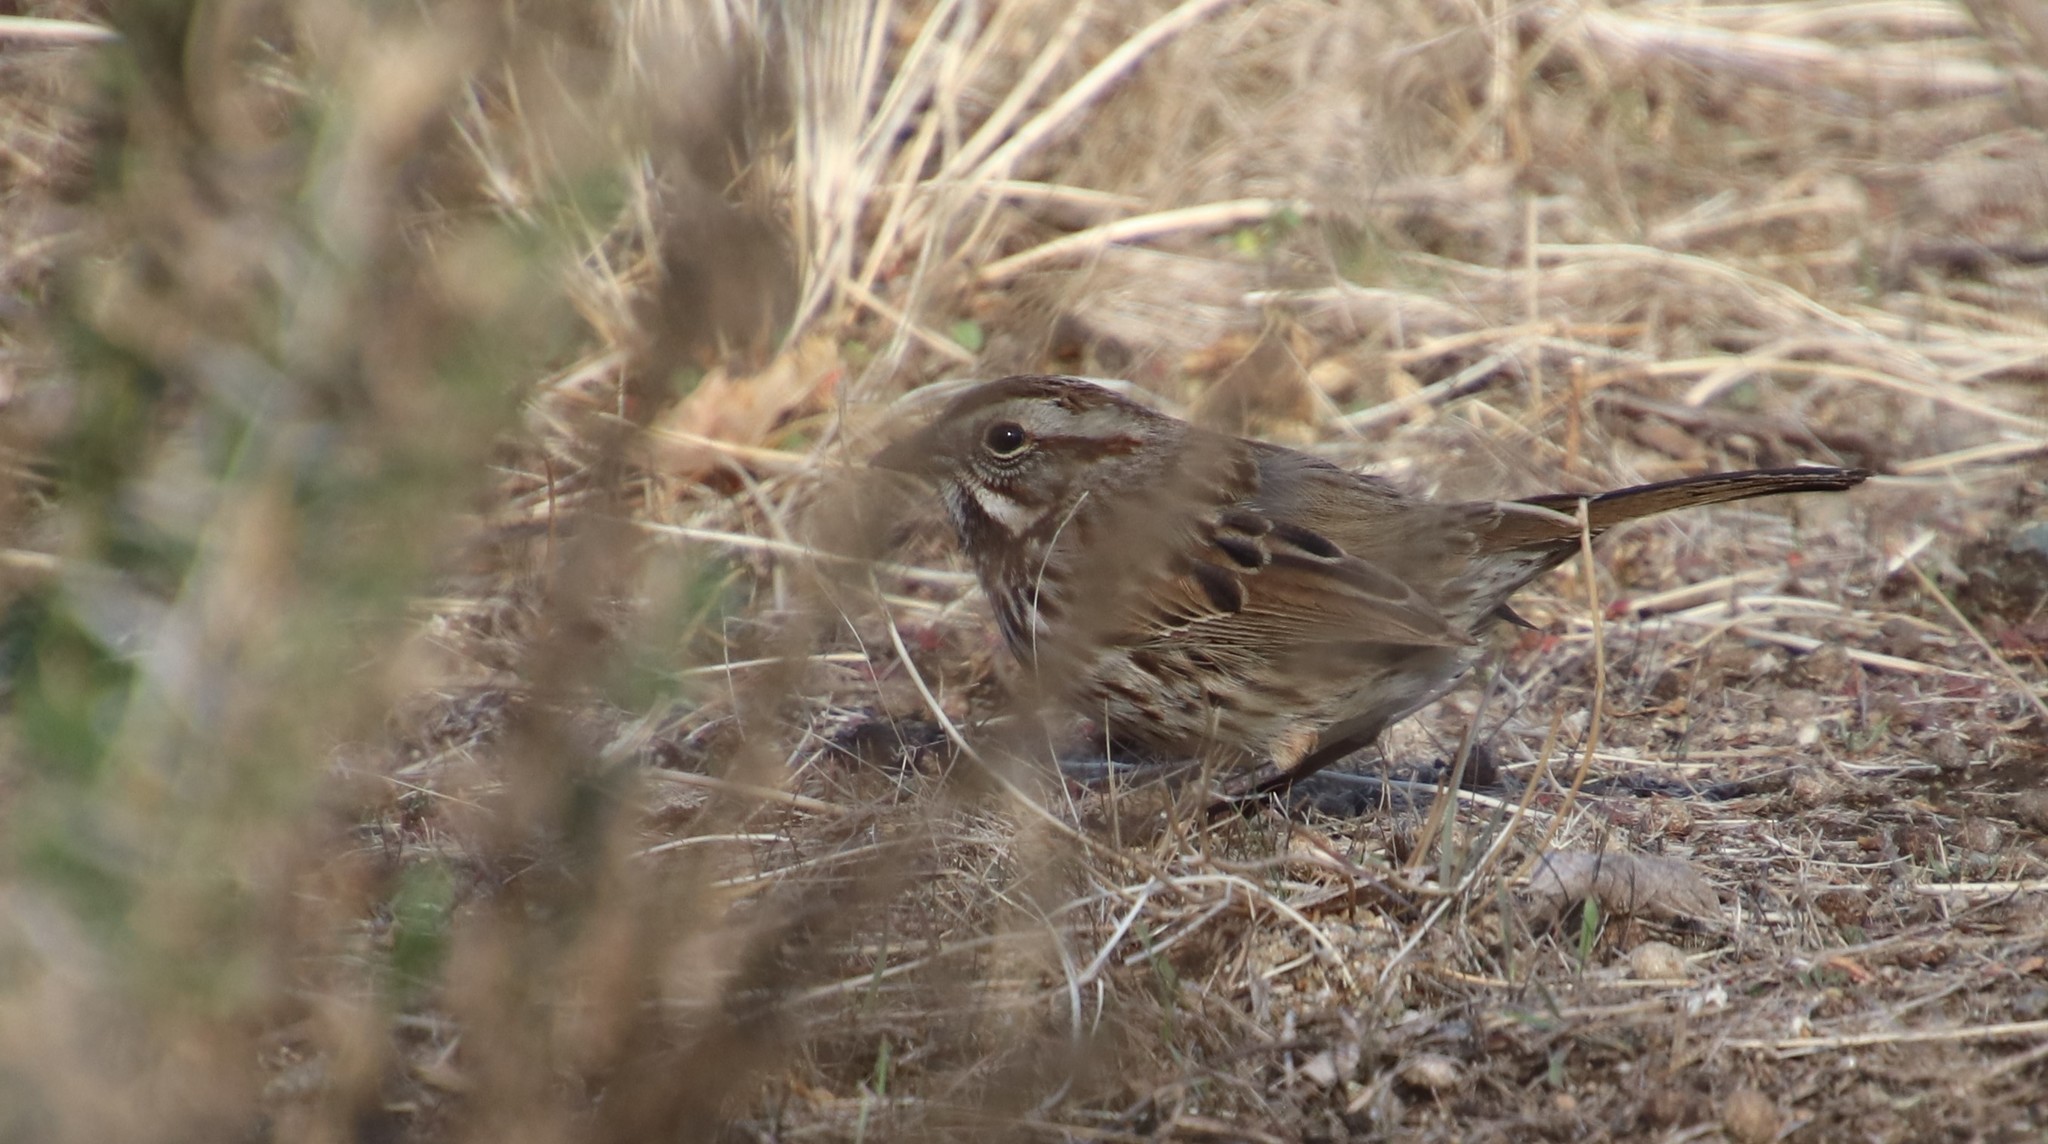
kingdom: Animalia
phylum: Chordata
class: Aves
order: Passeriformes
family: Passerellidae
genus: Melospiza
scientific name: Melospiza melodia
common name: Song sparrow
